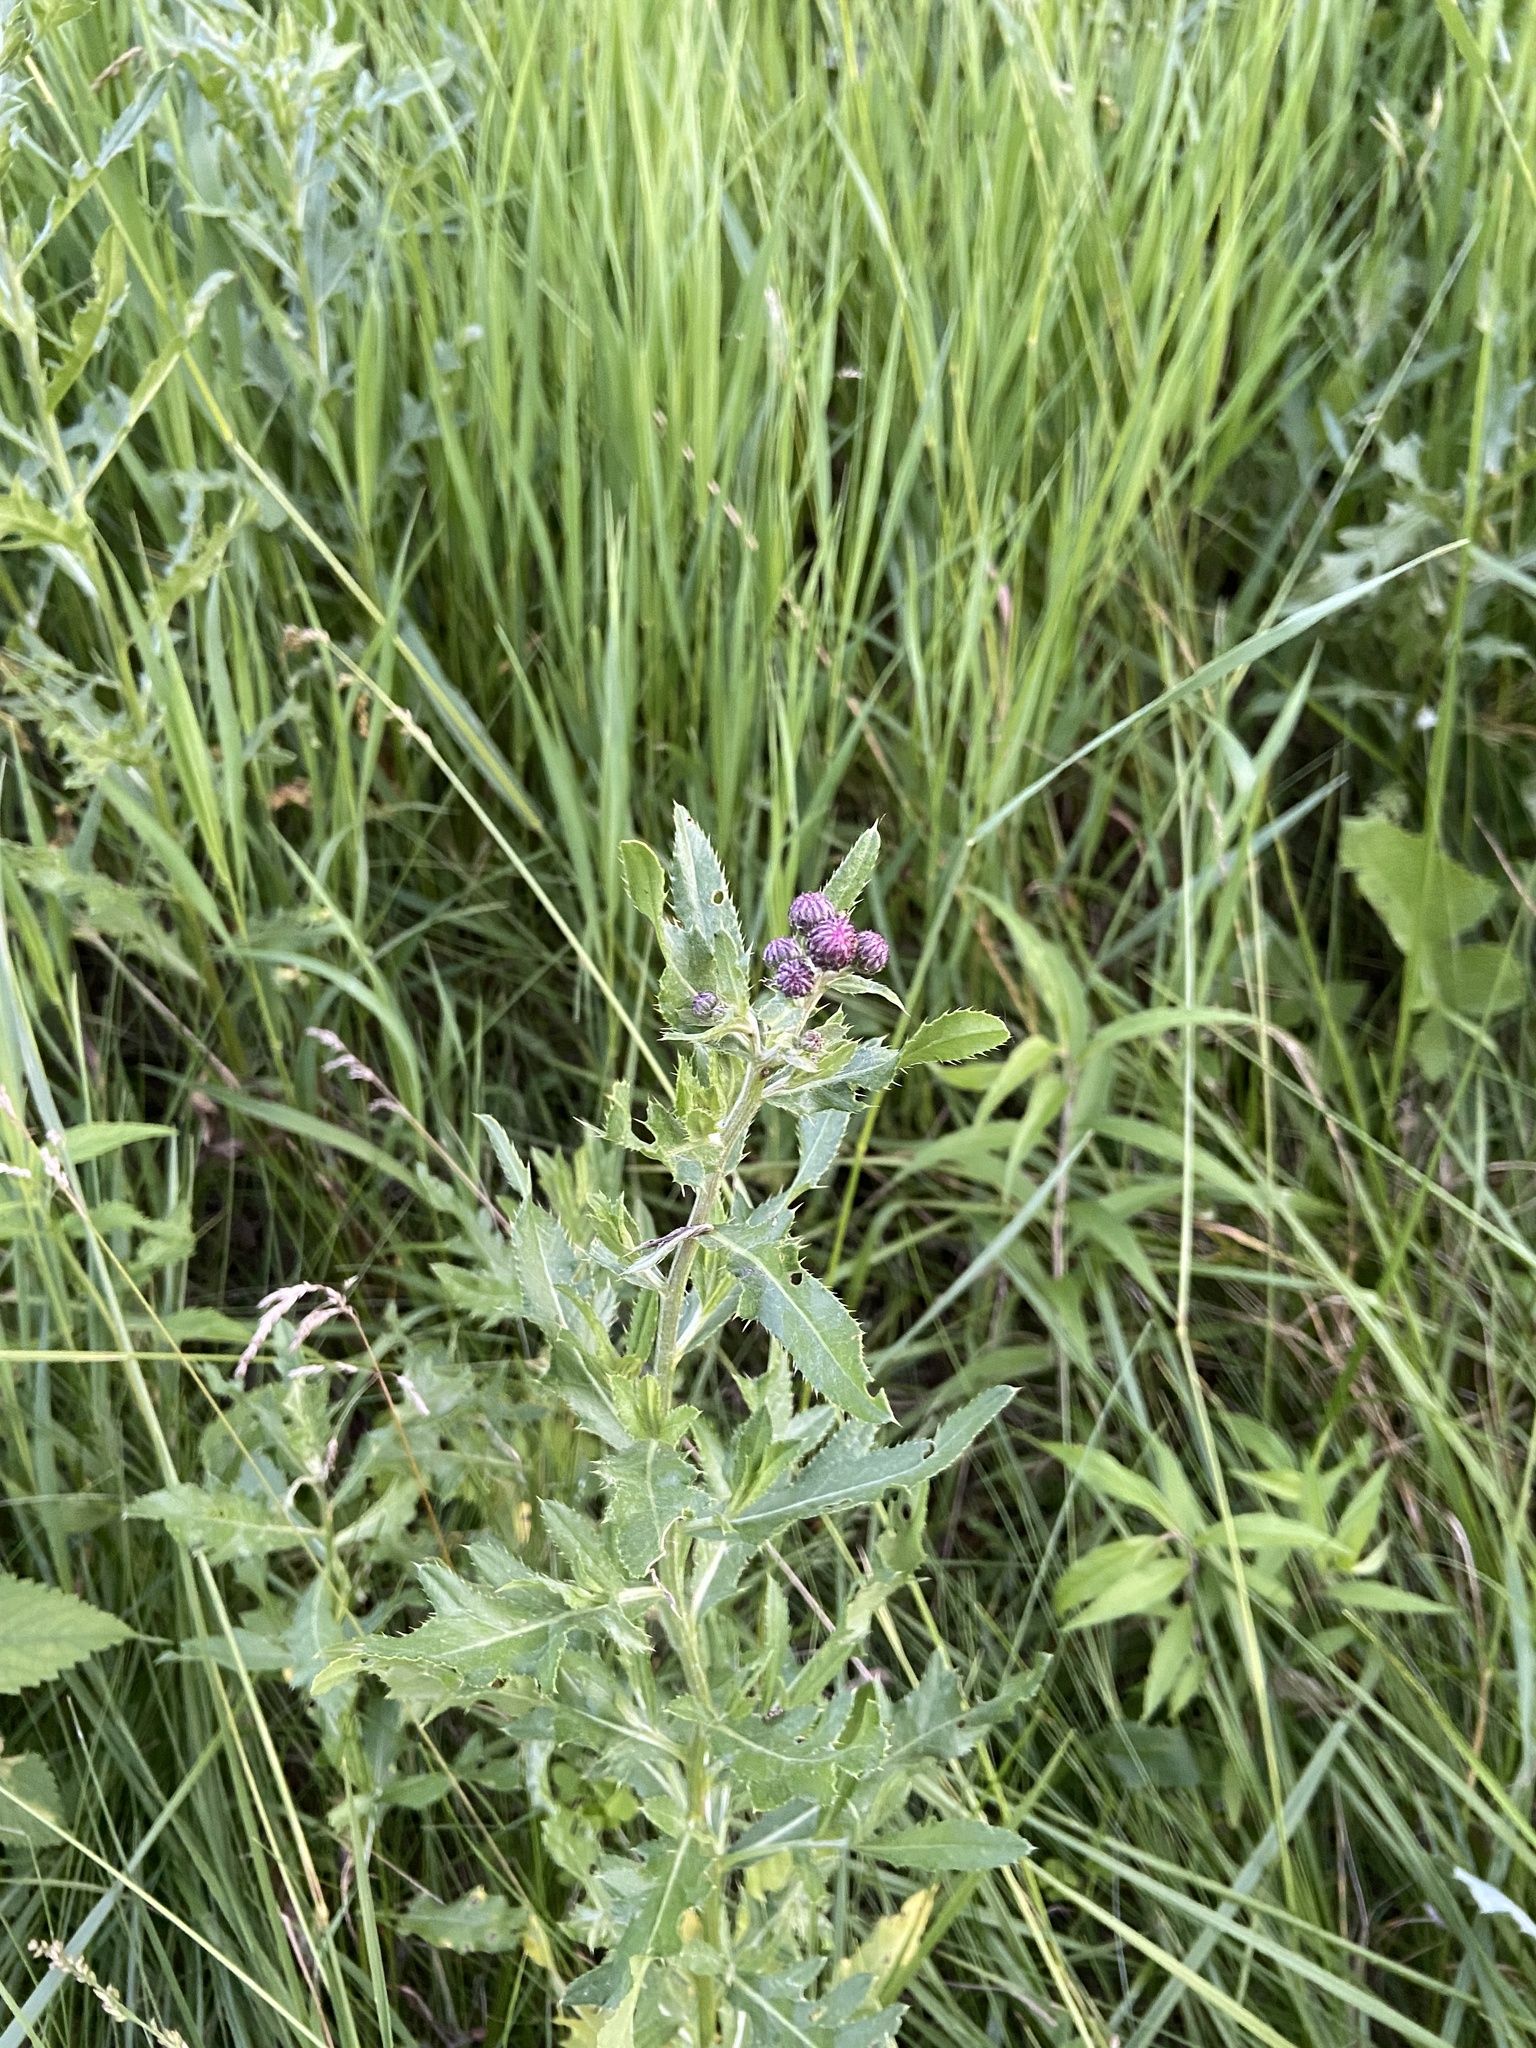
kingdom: Plantae
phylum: Tracheophyta
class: Magnoliopsida
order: Asterales
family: Asteraceae
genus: Cirsium
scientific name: Cirsium arvense
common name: Creeping thistle
